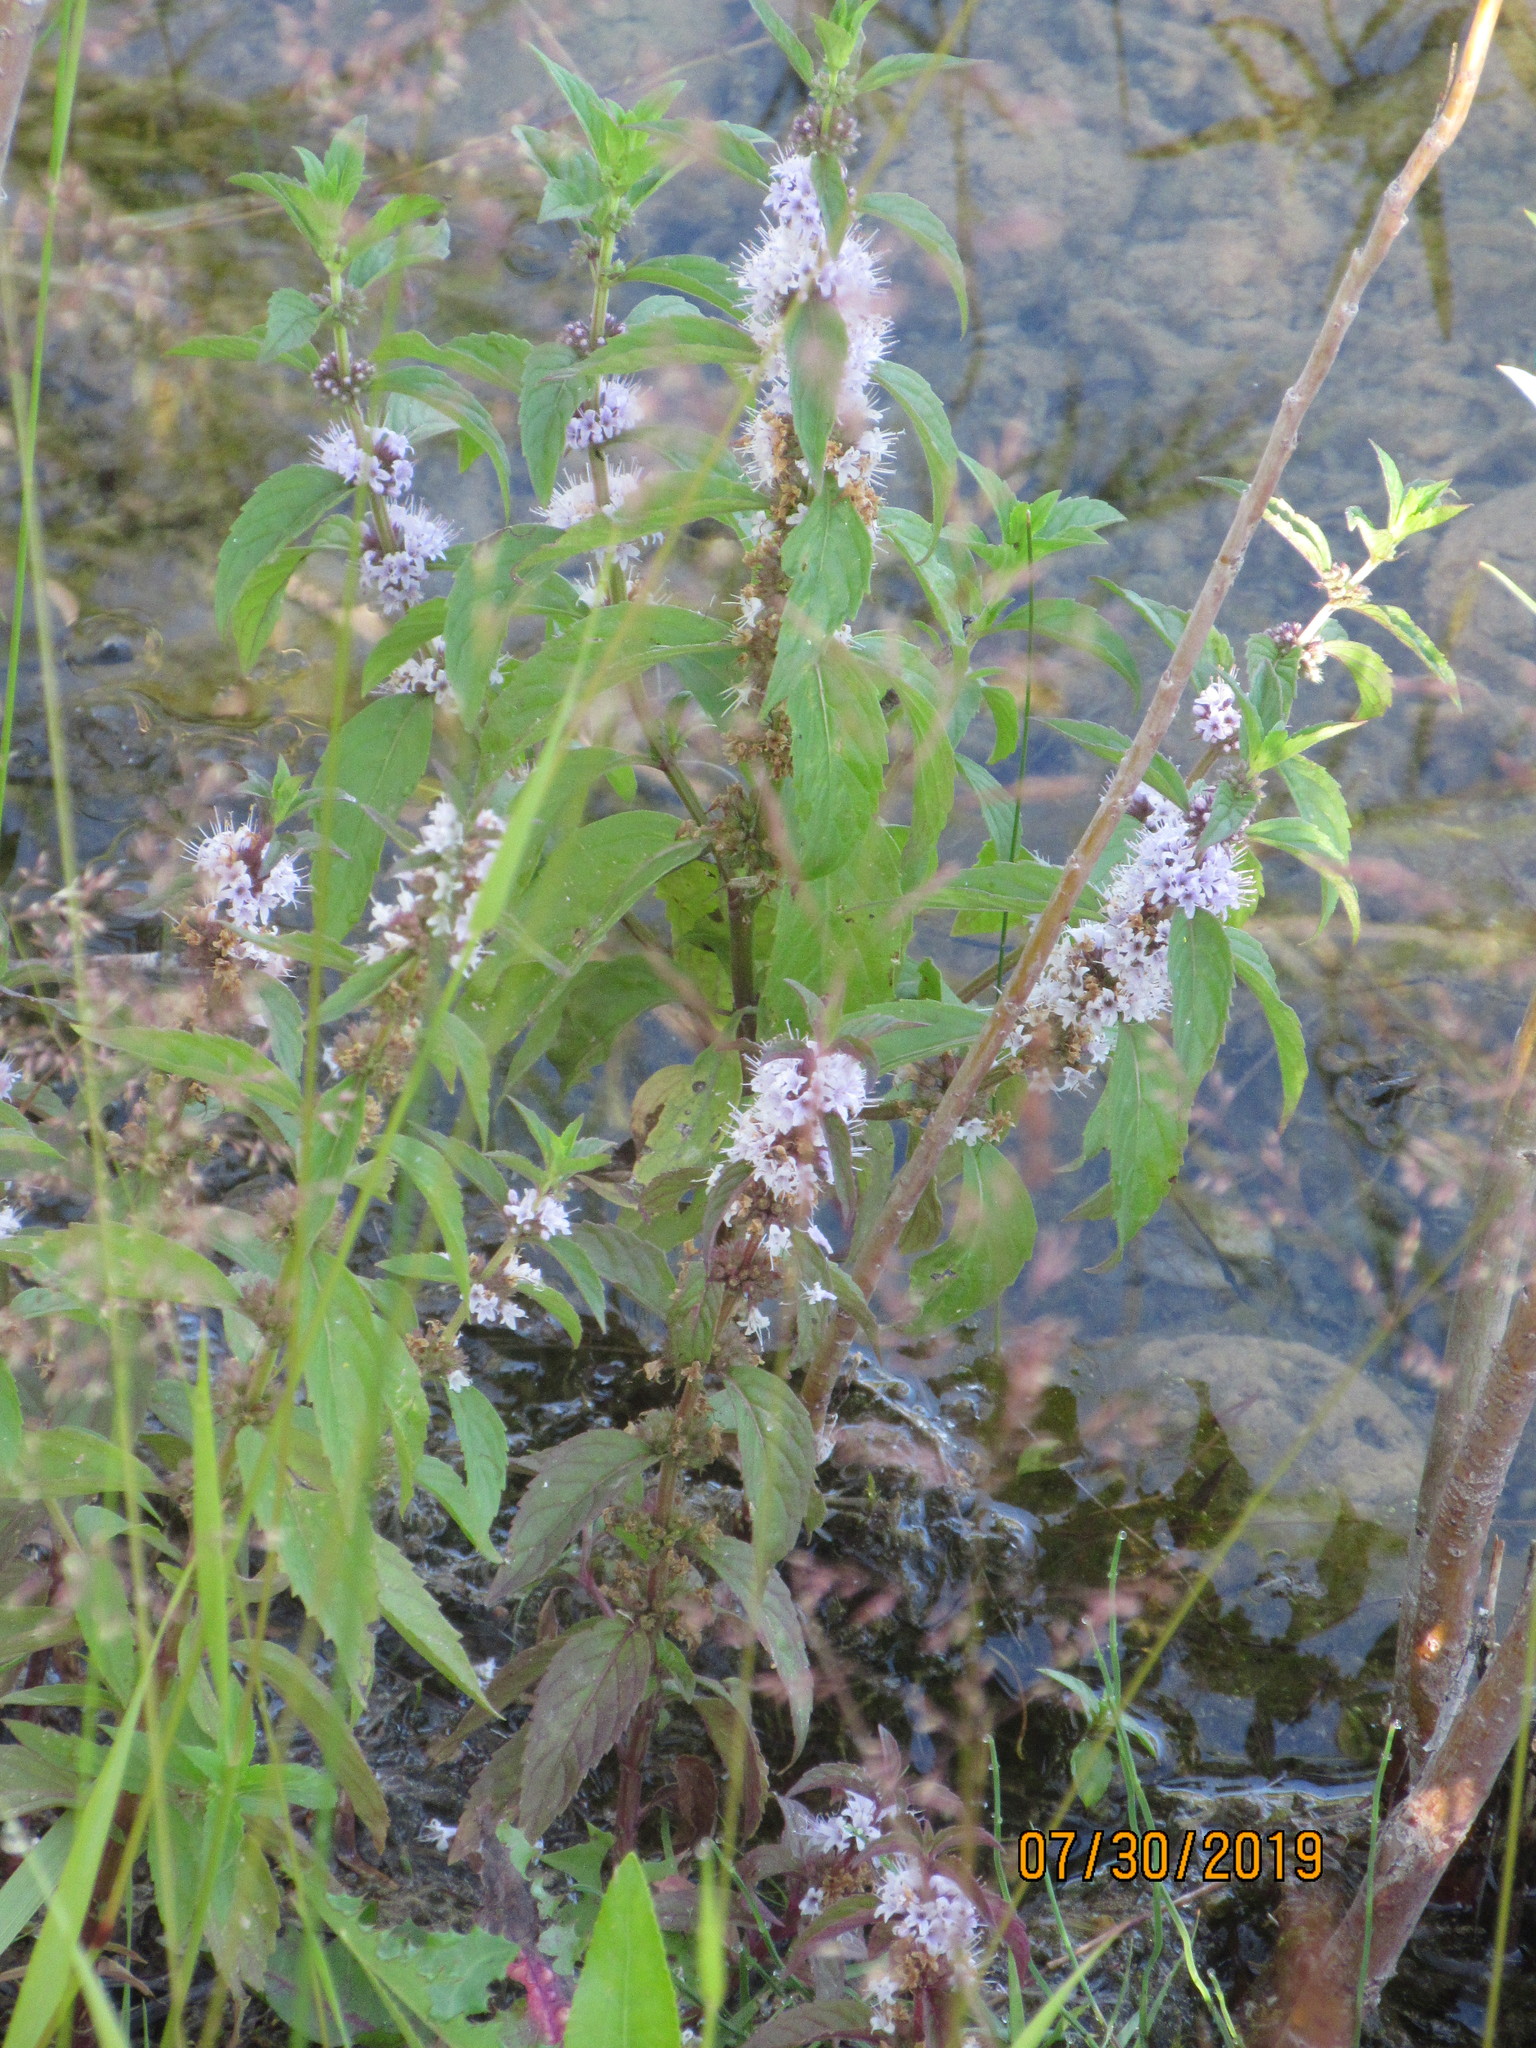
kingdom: Plantae
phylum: Tracheophyta
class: Magnoliopsida
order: Lamiales
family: Lamiaceae
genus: Mentha
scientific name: Mentha canadensis
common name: American corn mint
